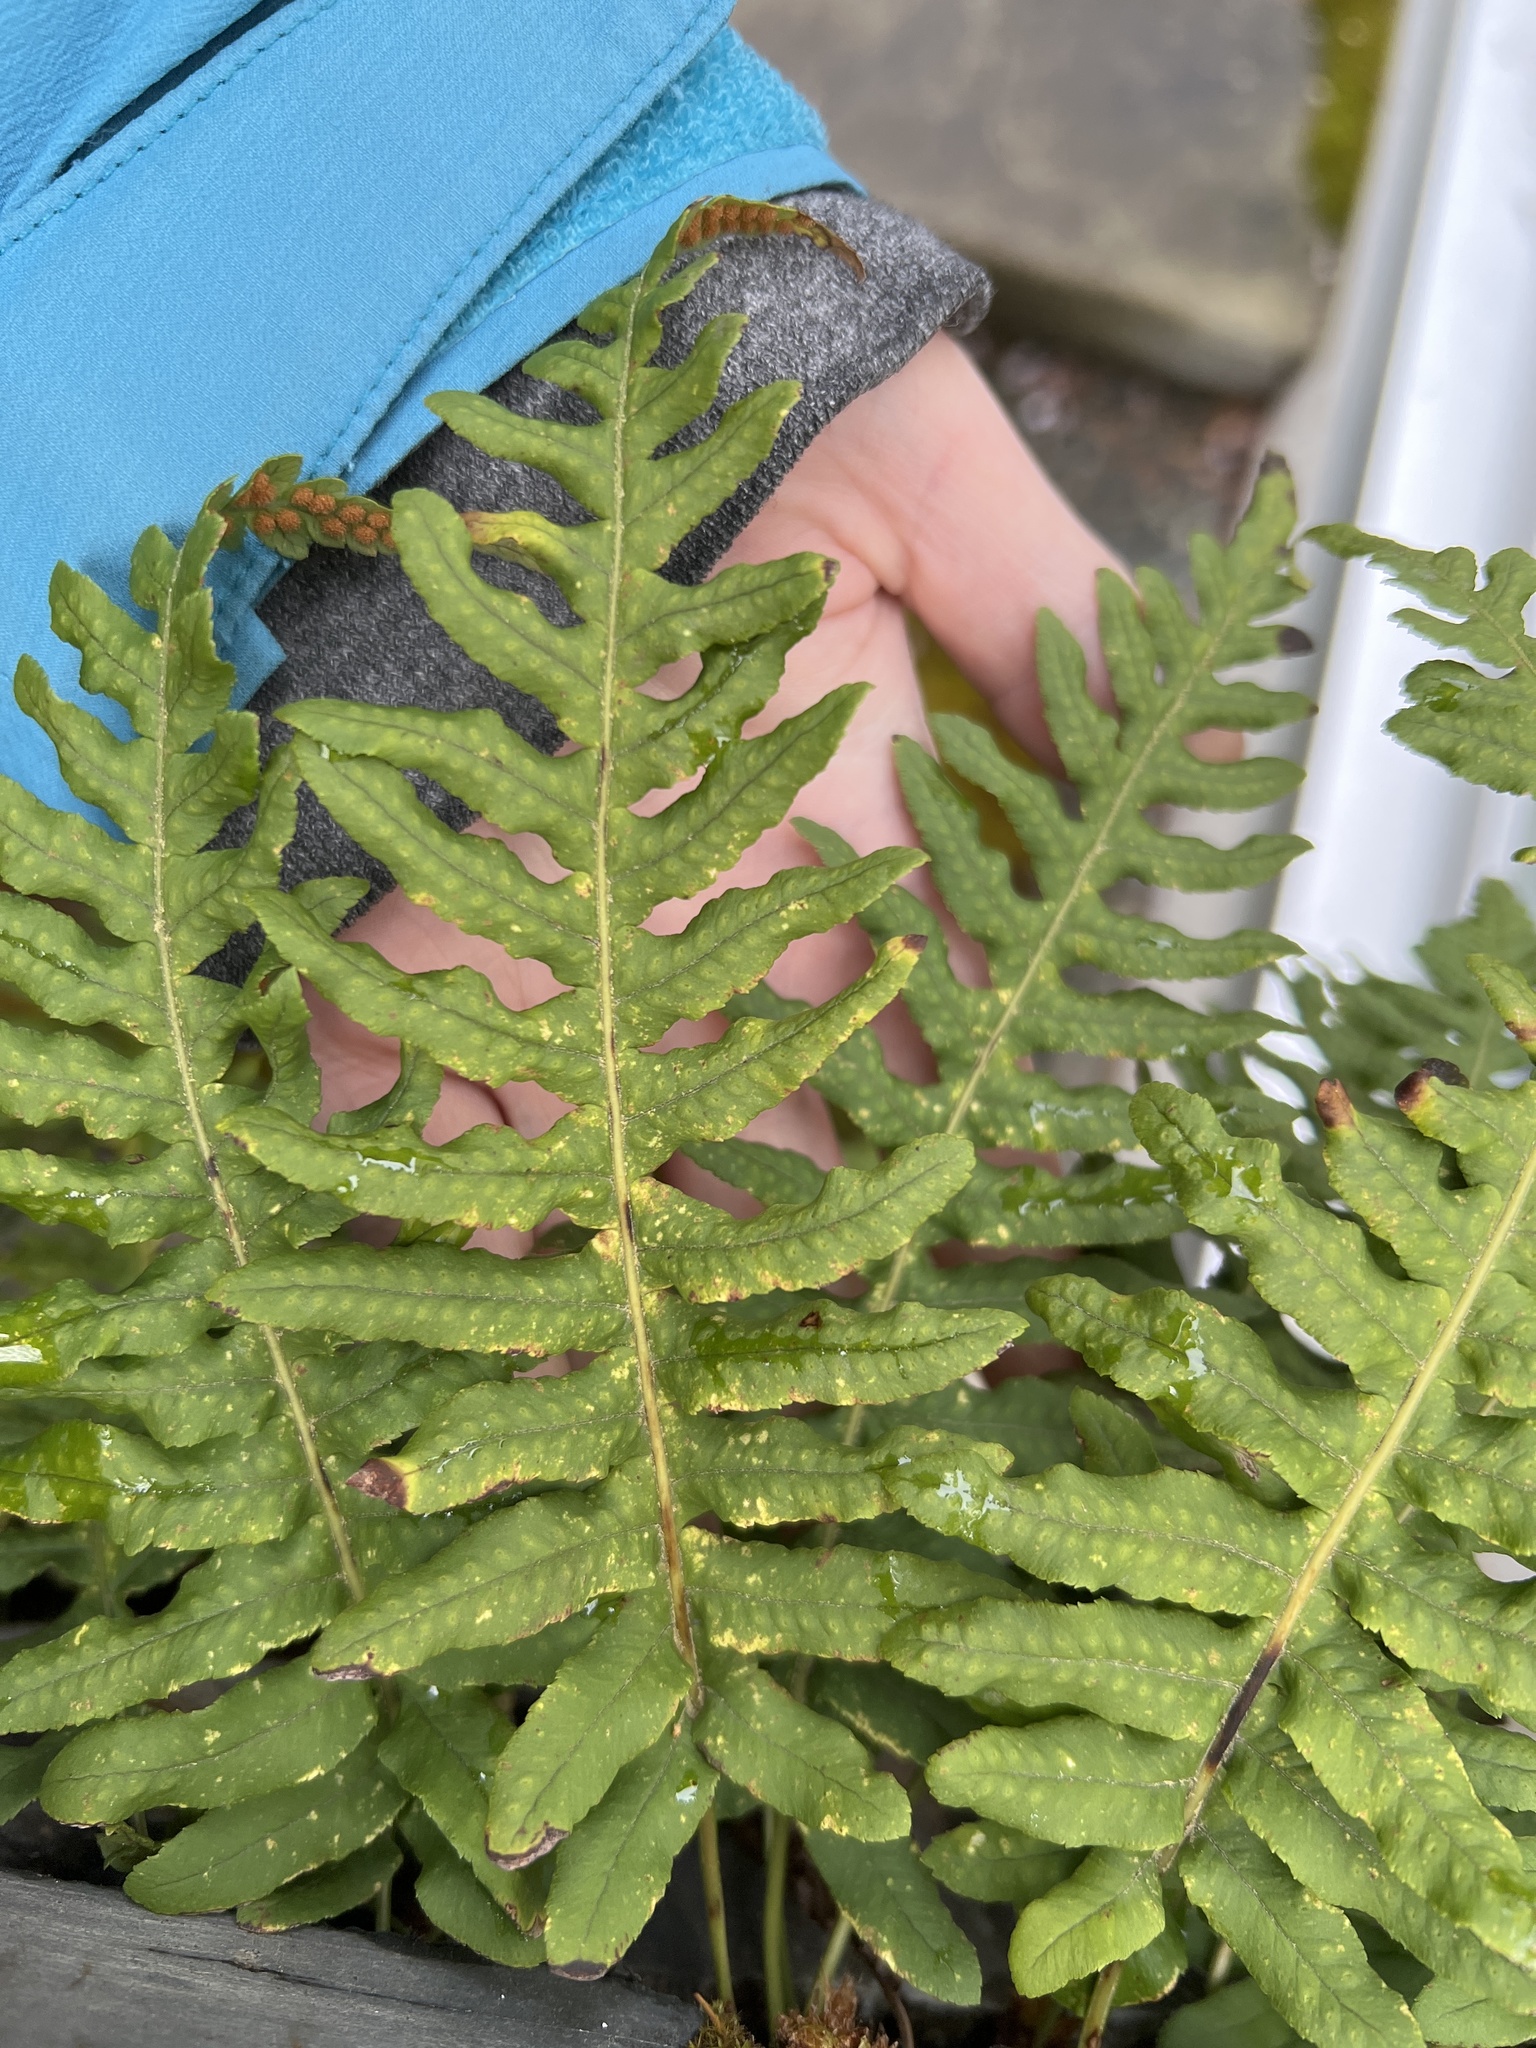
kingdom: Plantae
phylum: Tracheophyta
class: Polypodiopsida
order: Polypodiales
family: Polypodiaceae
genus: Polypodium
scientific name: Polypodium glycyrrhiza
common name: Licorice fern
